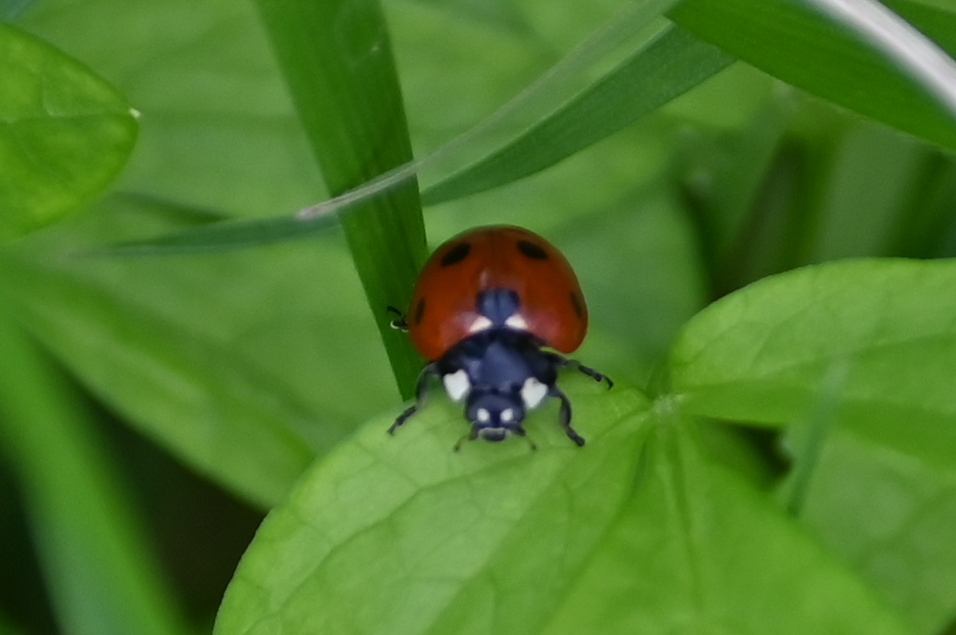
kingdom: Animalia
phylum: Arthropoda
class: Insecta
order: Coleoptera
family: Coccinellidae
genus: Coccinella
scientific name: Coccinella septempunctata
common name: Sevenspotted lady beetle
